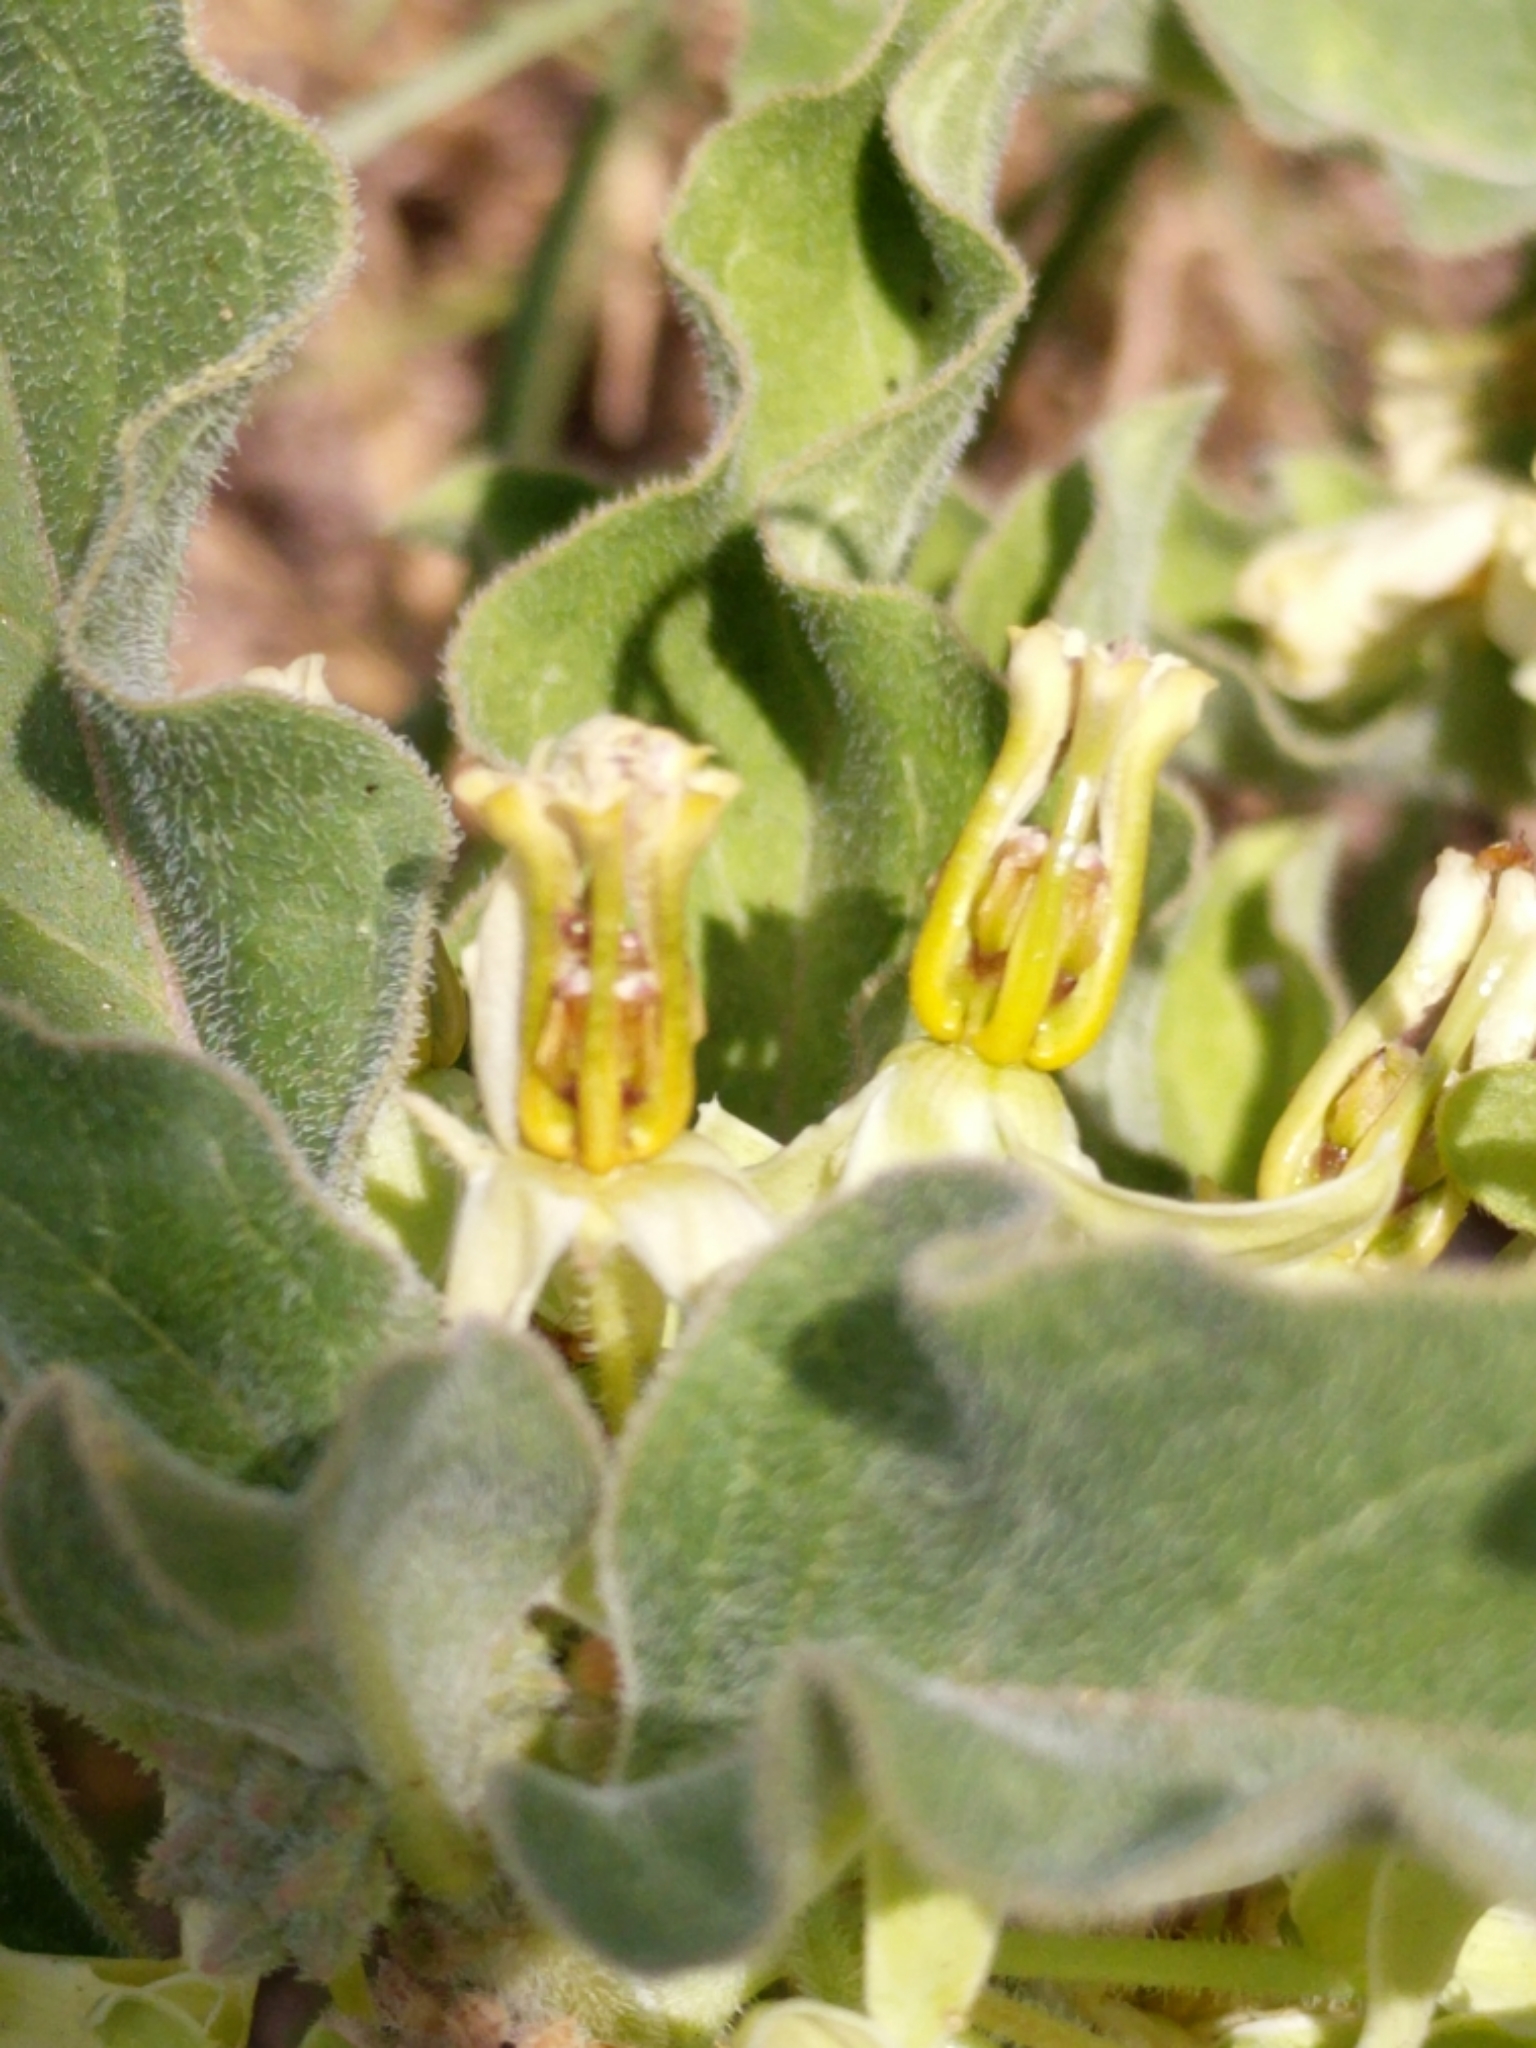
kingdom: Plantae
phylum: Tracheophyta
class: Magnoliopsida
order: Gentianales
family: Apocynaceae
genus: Asclepias
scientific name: Asclepias oenotheroides
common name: Zizotes milkweed
